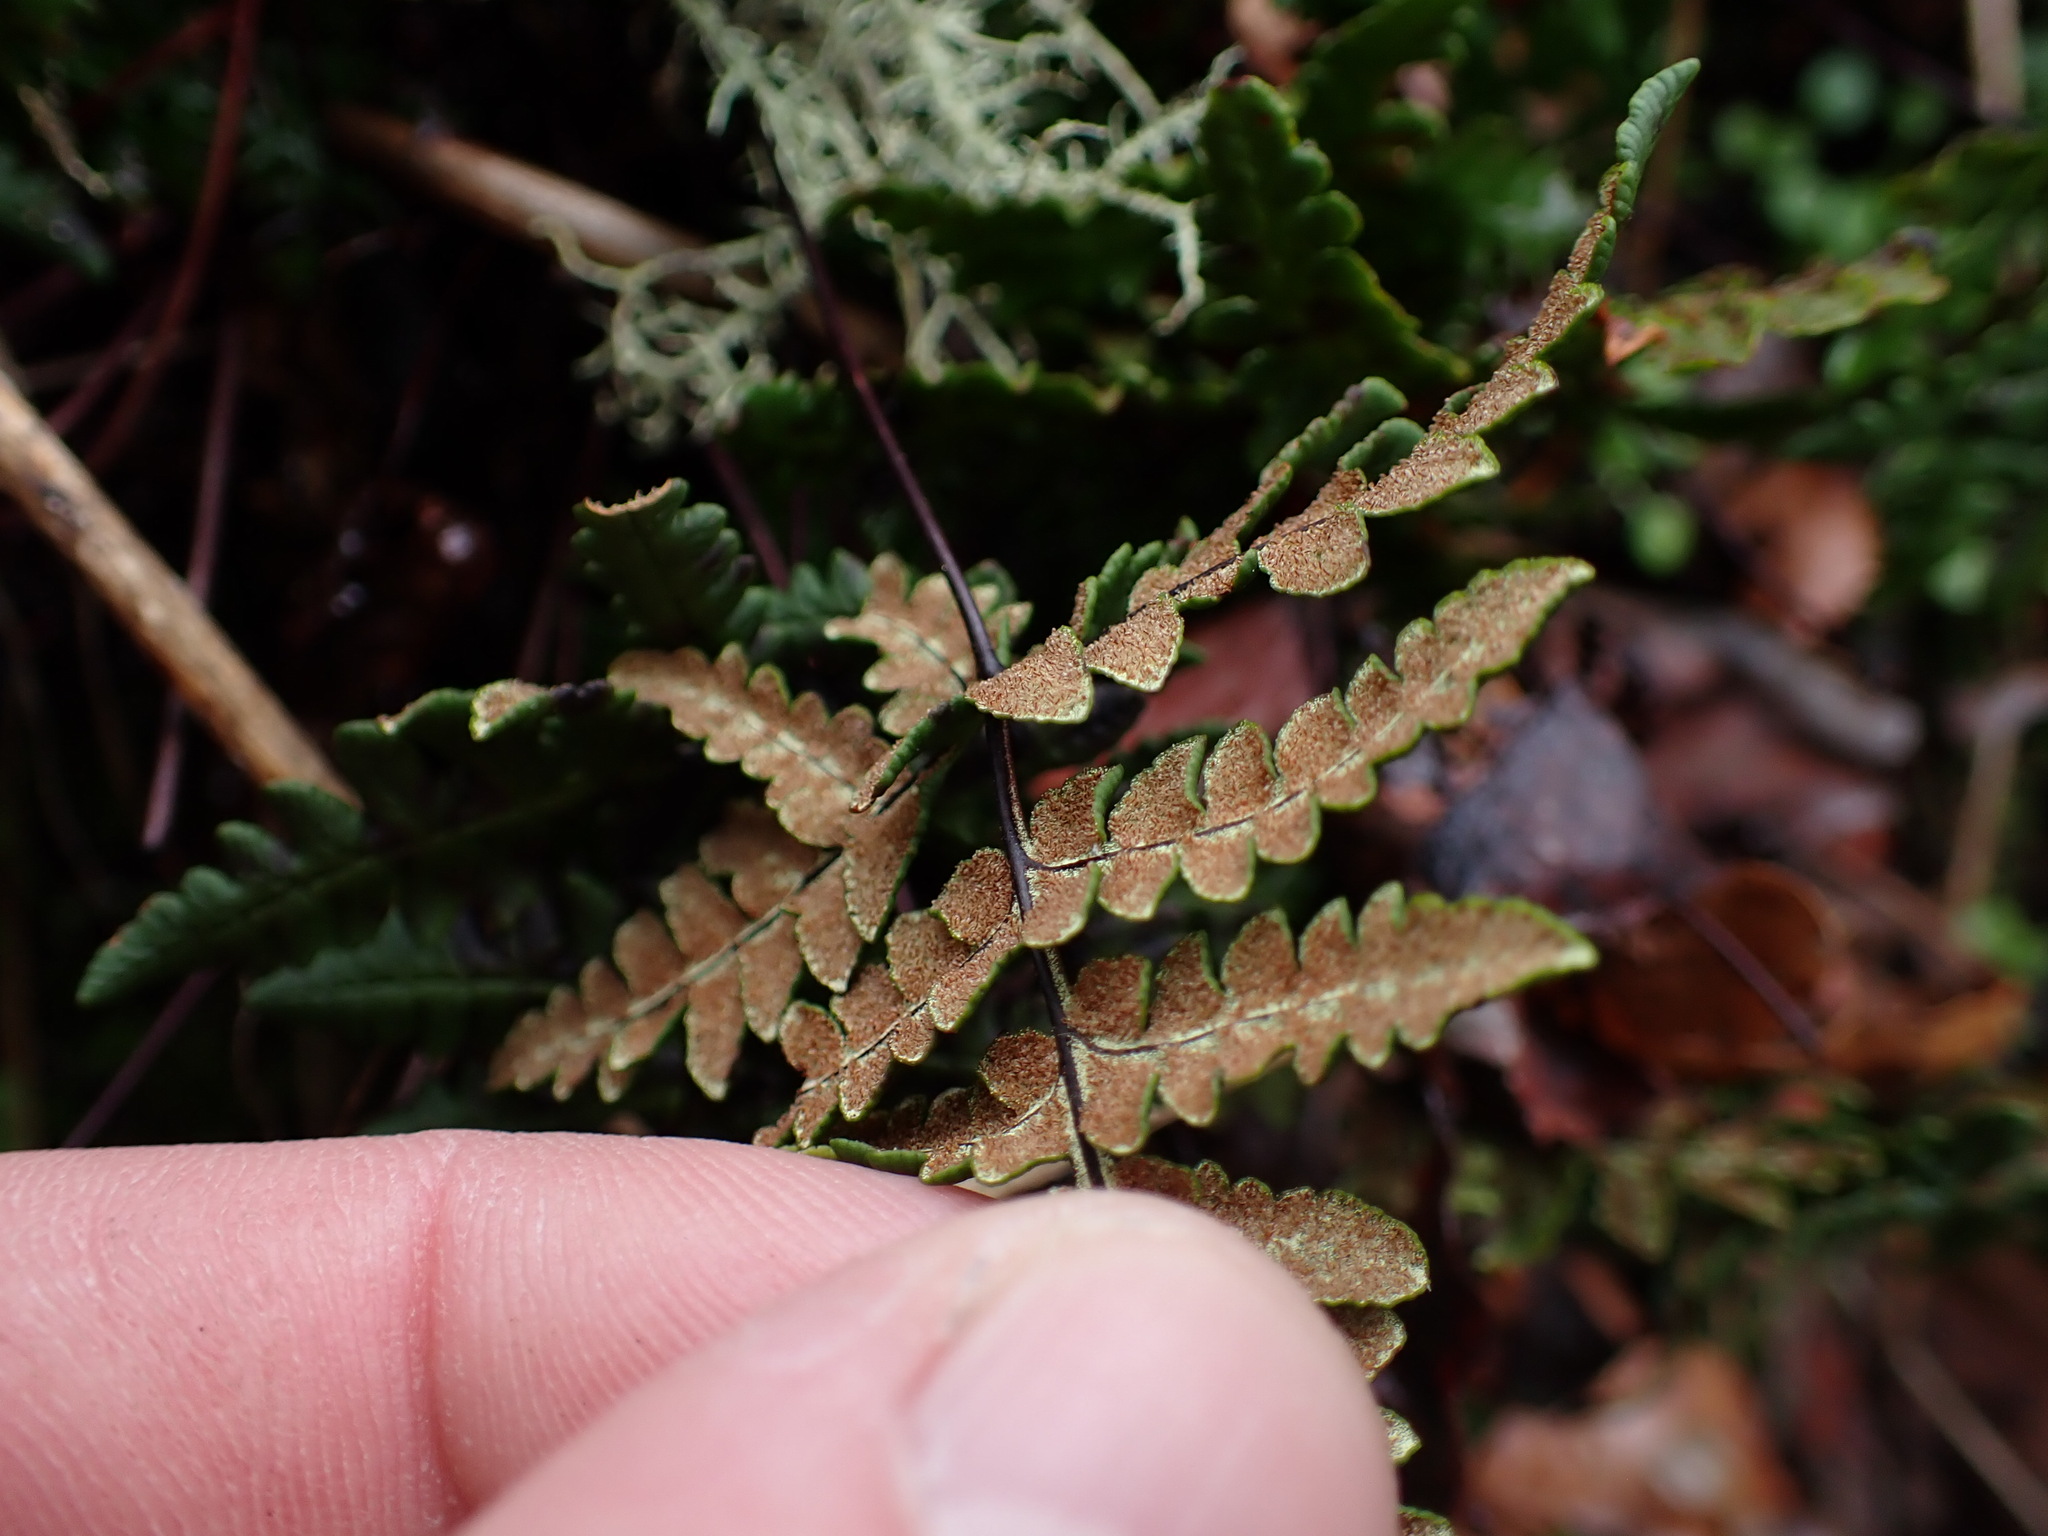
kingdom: Plantae
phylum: Tracheophyta
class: Polypodiopsida
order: Polypodiales
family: Pteridaceae
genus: Pentagramma
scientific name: Pentagramma triangularis
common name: Gold fern
